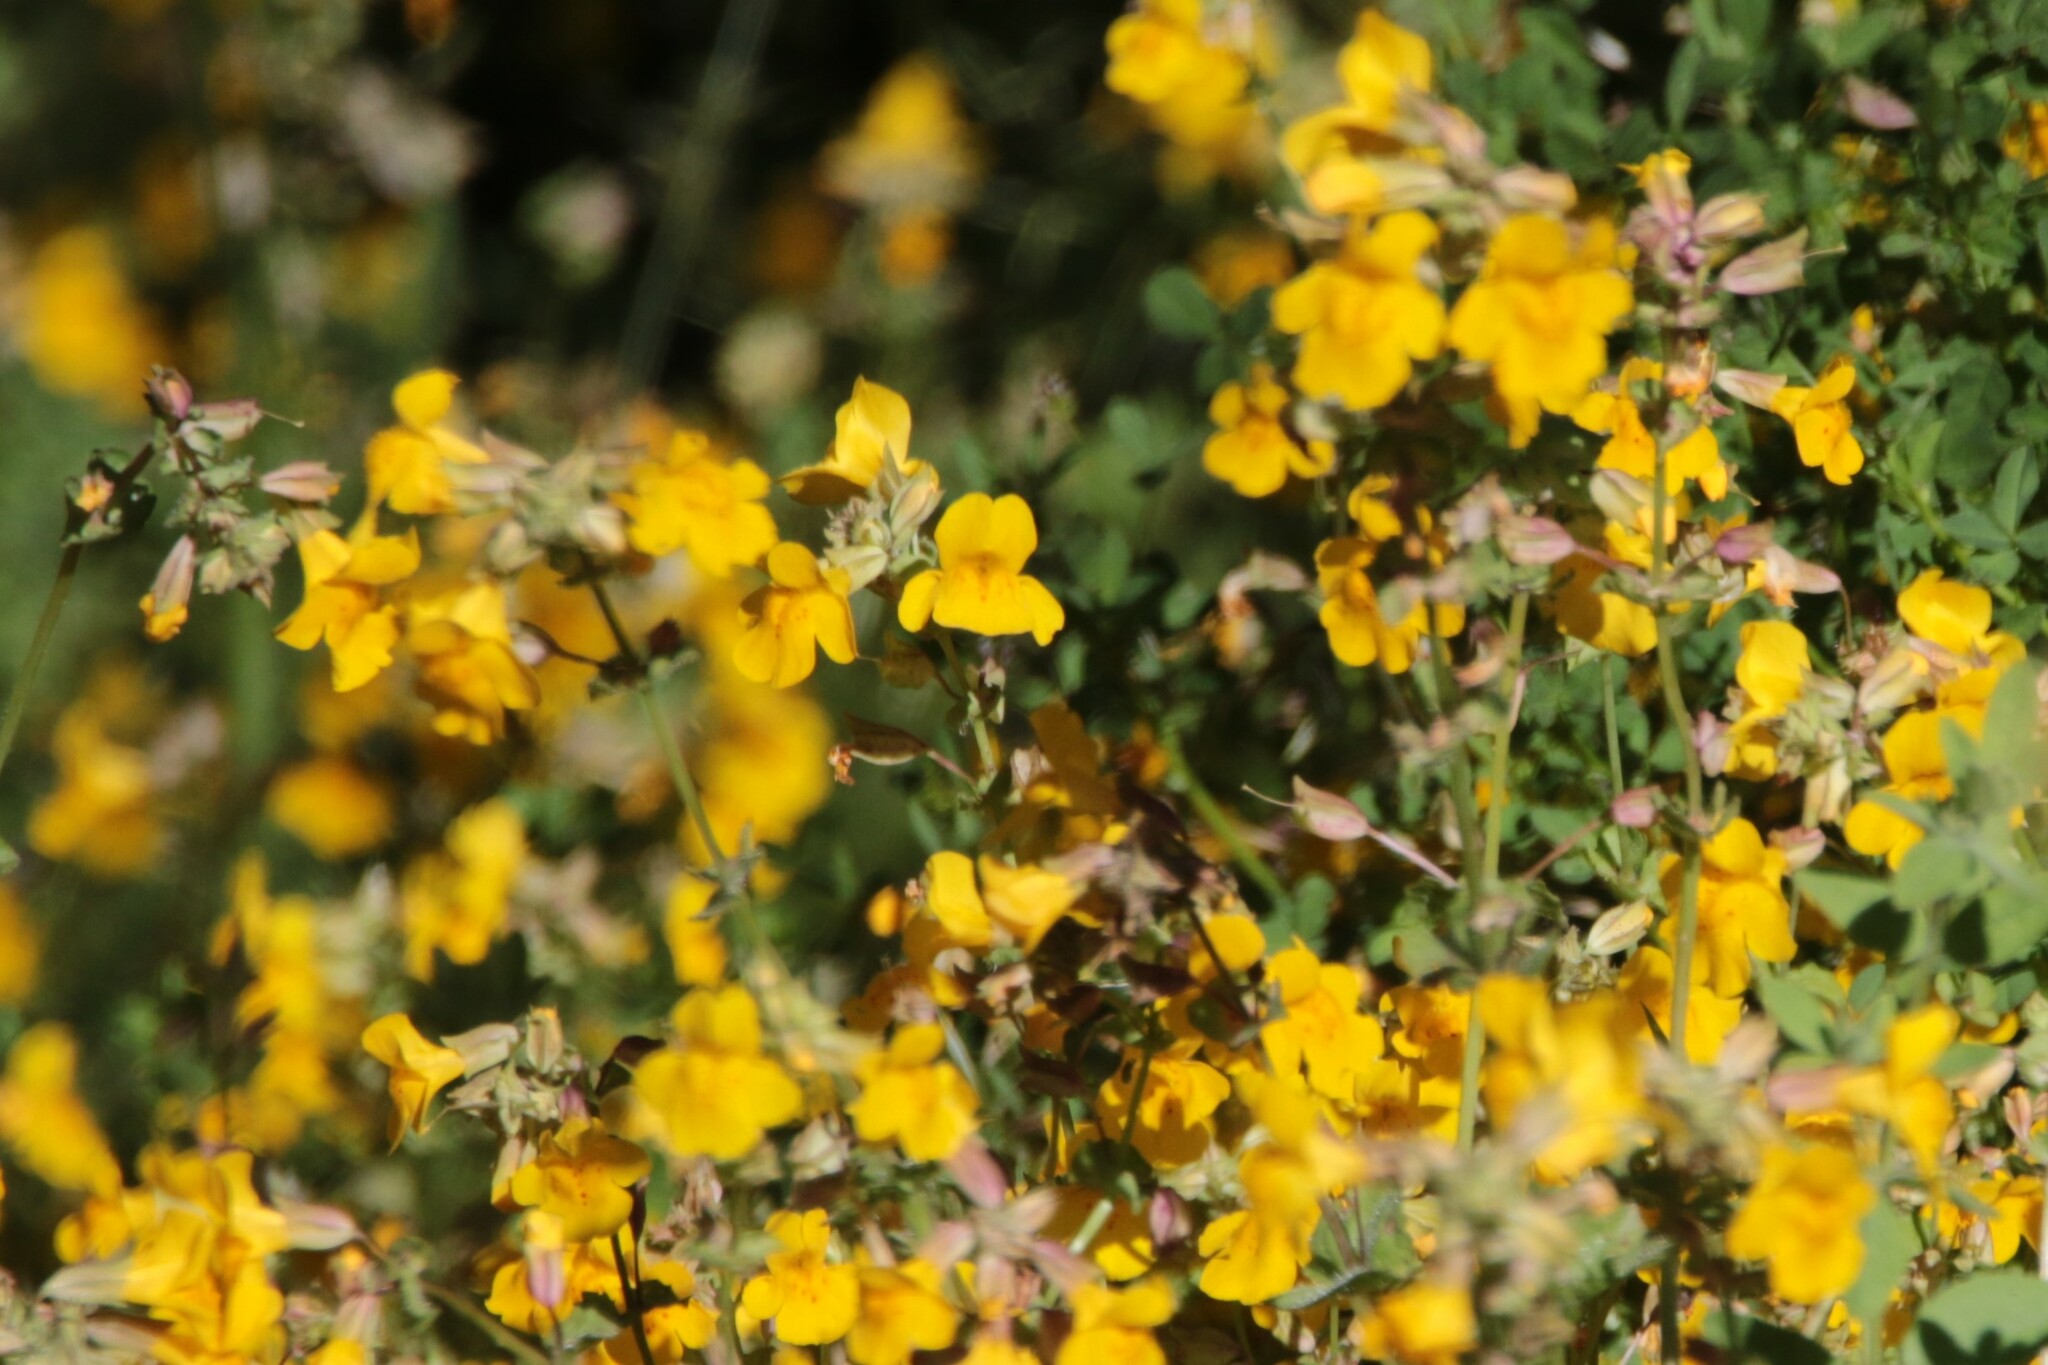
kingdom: Plantae
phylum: Tracheophyta
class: Magnoliopsida
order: Lamiales
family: Phrymaceae
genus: Erythranthe
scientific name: Erythranthe guttata
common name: Monkeyflower
